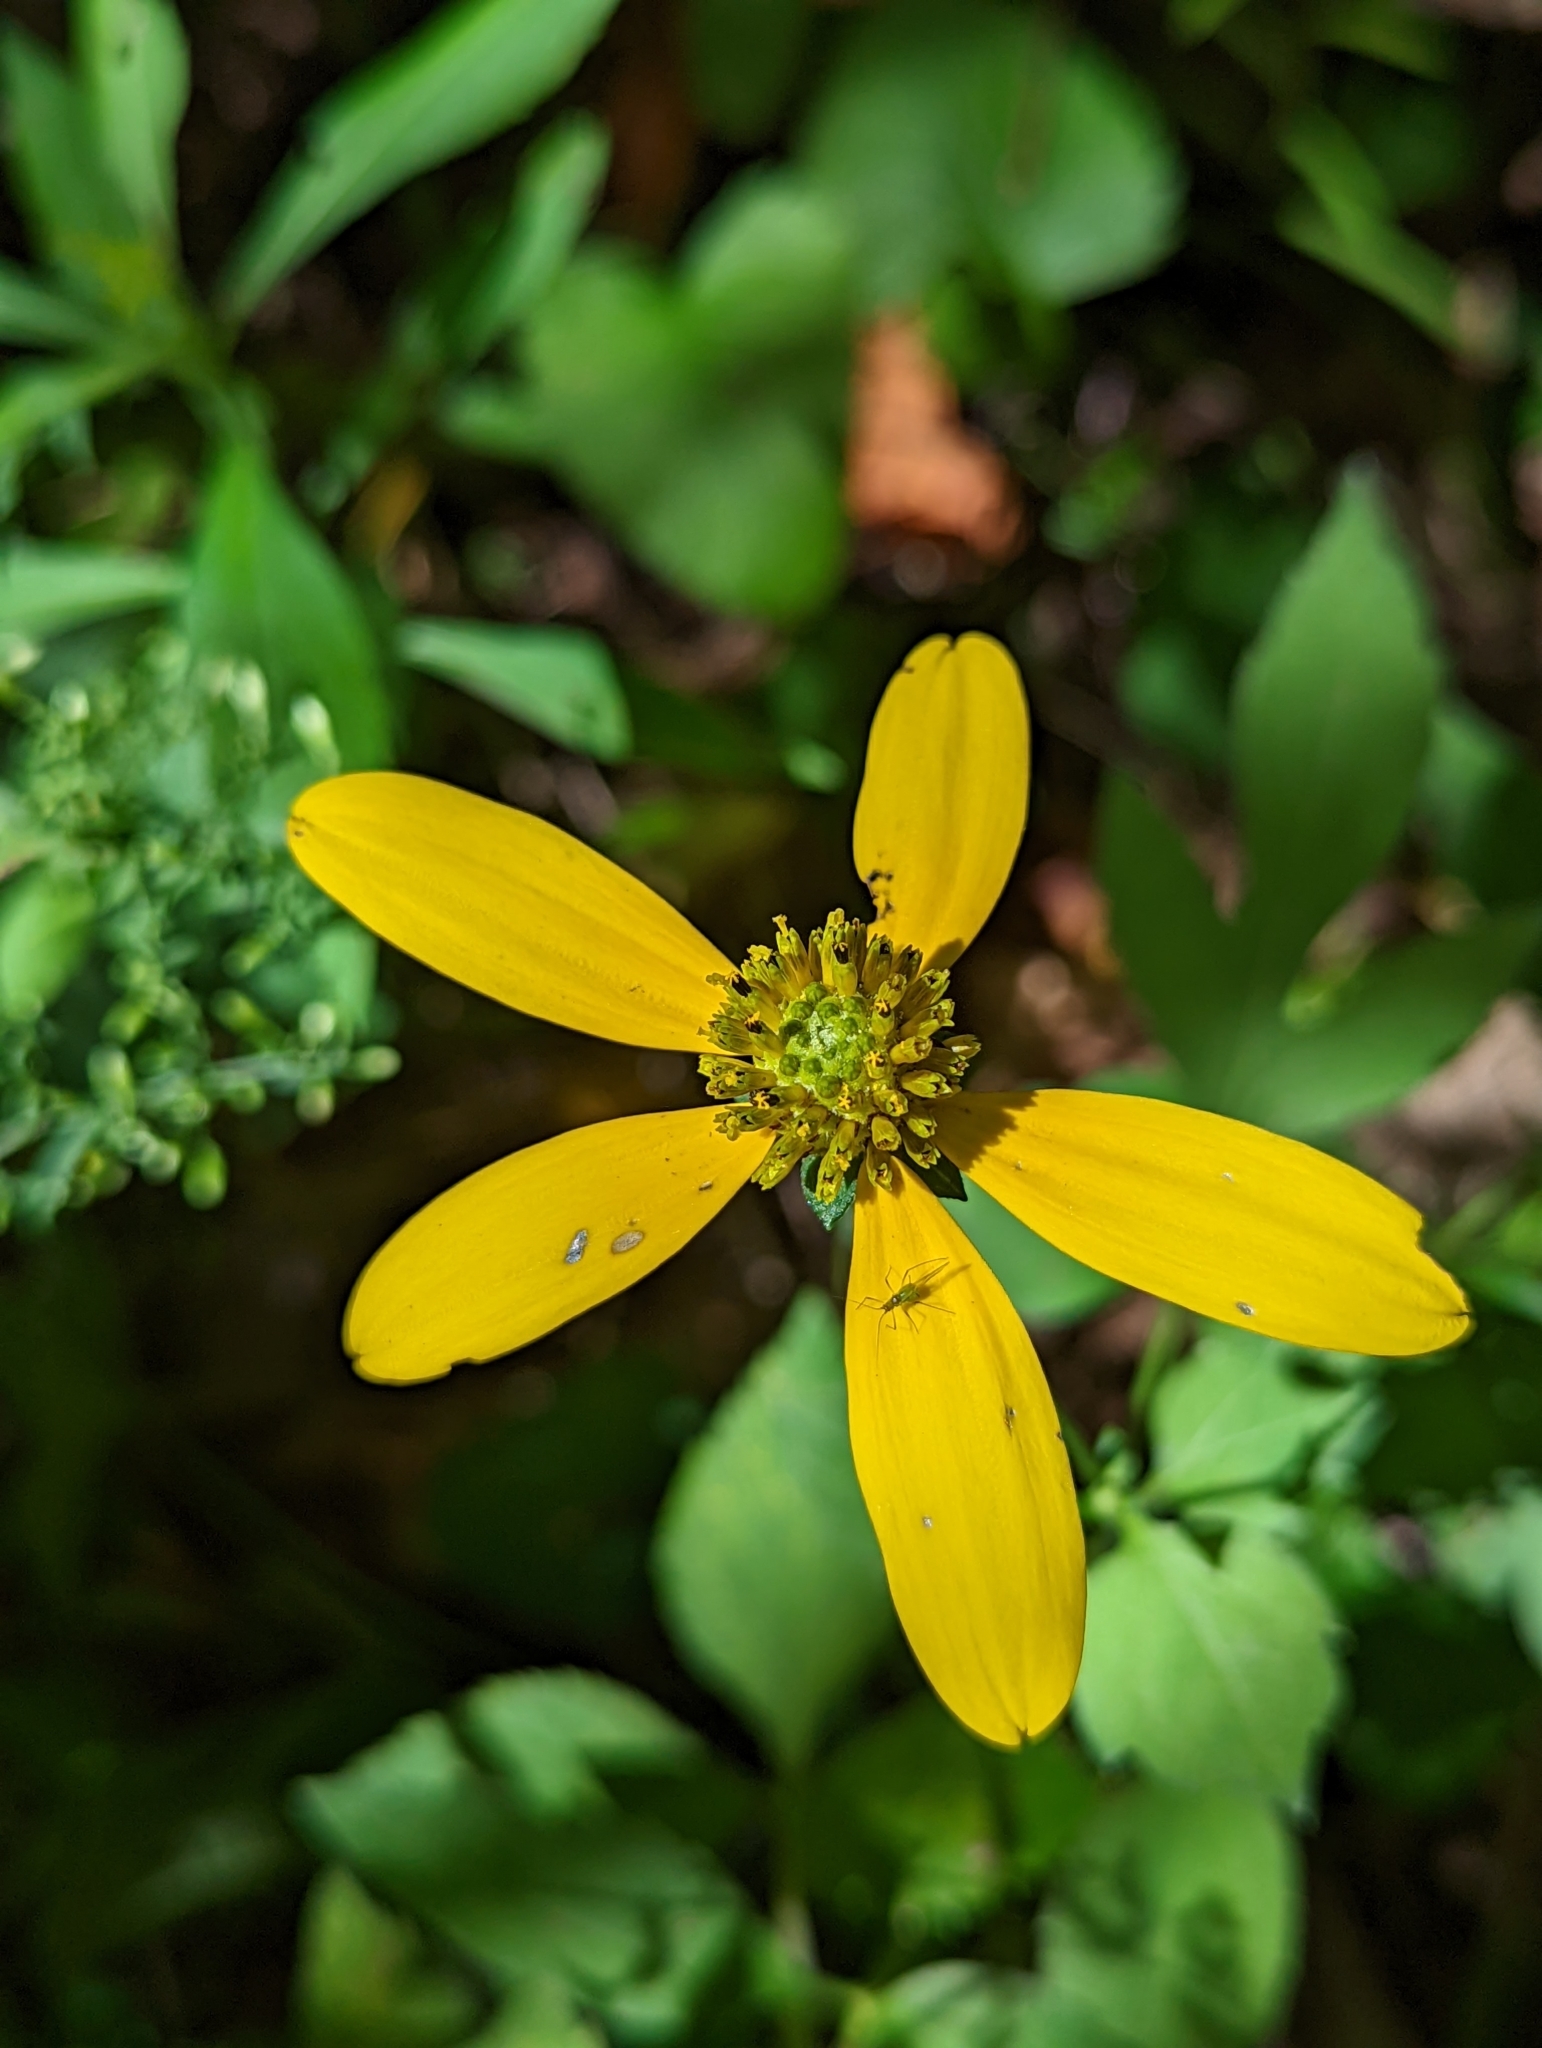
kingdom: Plantae
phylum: Tracheophyta
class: Magnoliopsida
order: Asterales
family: Asteraceae
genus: Rudbeckia
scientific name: Rudbeckia laciniata
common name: Coneflower
